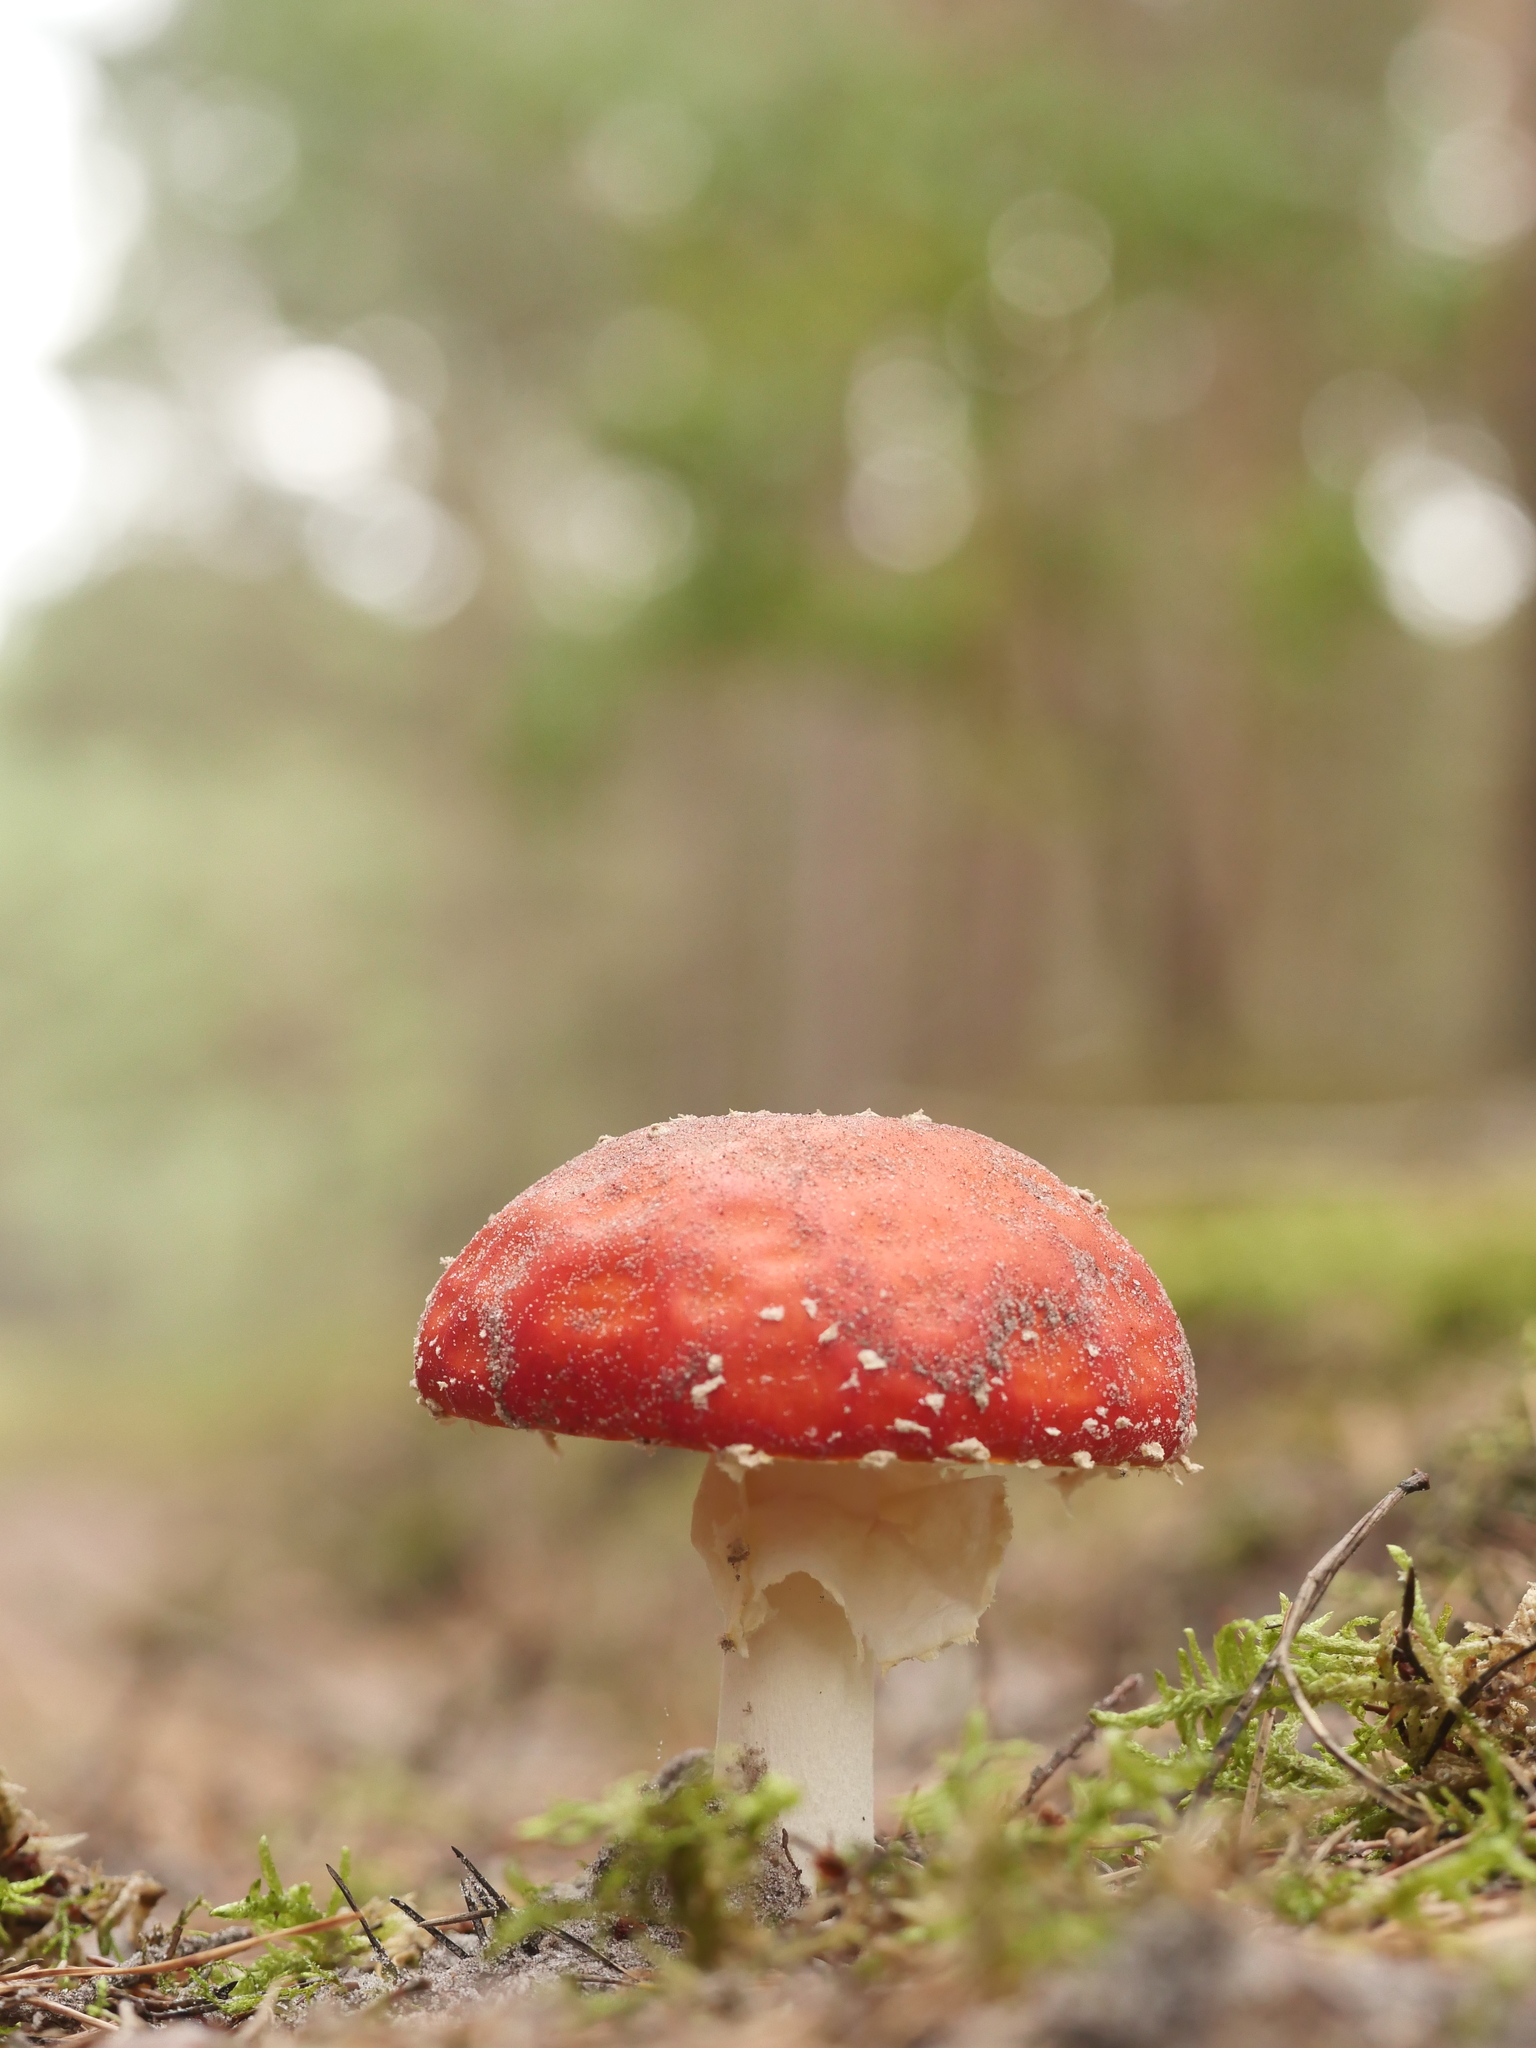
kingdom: Fungi
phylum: Basidiomycota
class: Agaricomycetes
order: Agaricales
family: Amanitaceae
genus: Amanita
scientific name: Amanita muscaria
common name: Fly agaric
